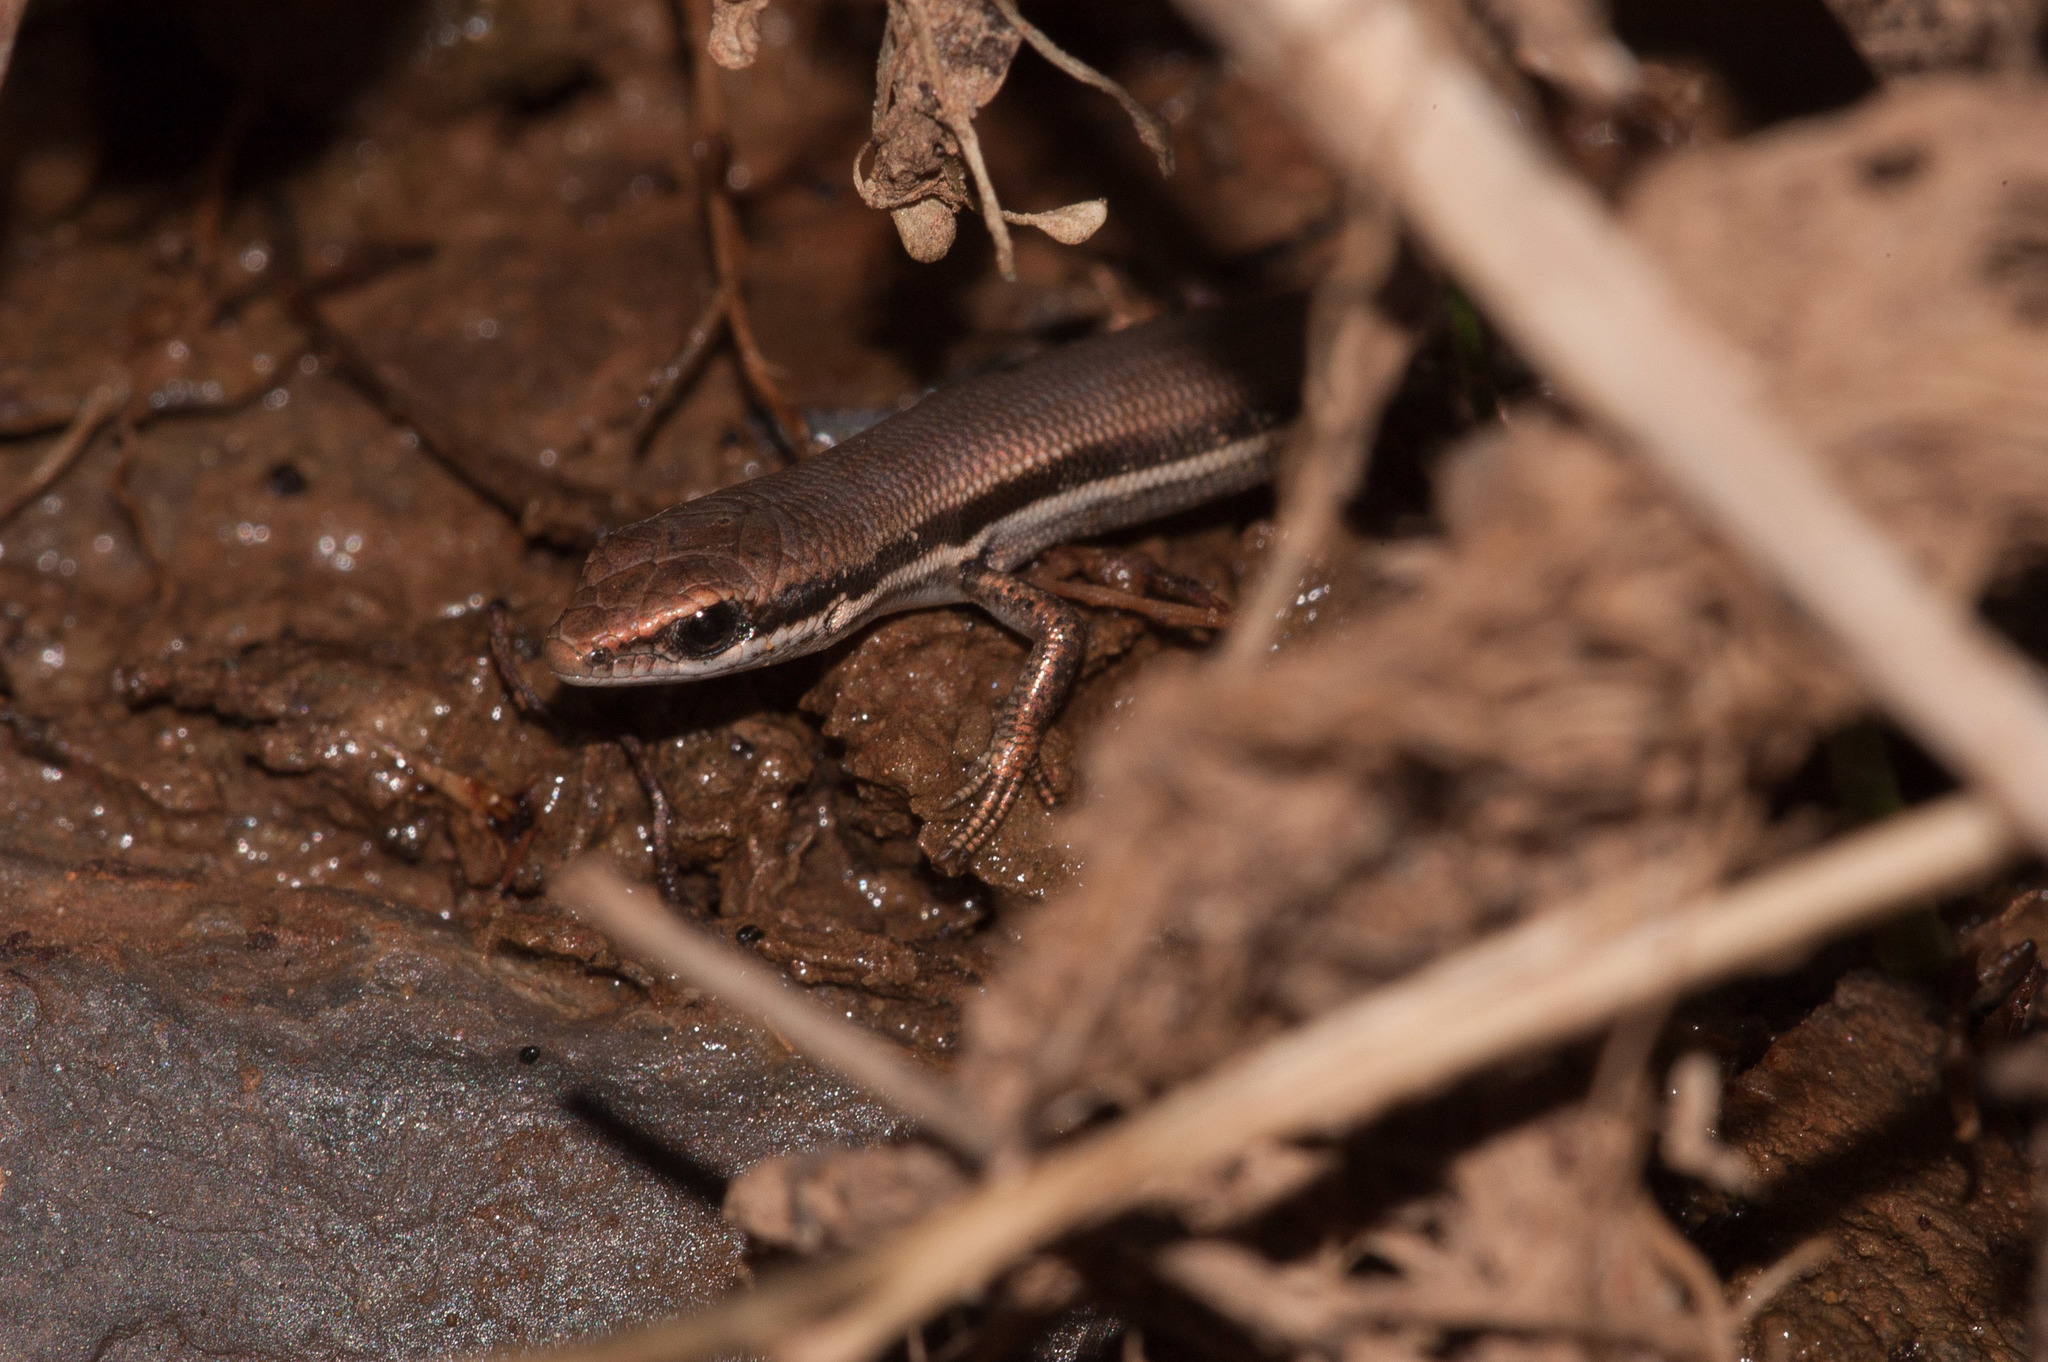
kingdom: Animalia
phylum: Chordata
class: Squamata
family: Scincidae
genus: Morethia
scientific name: Morethia boulengeri
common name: South-eastern morethia skink
